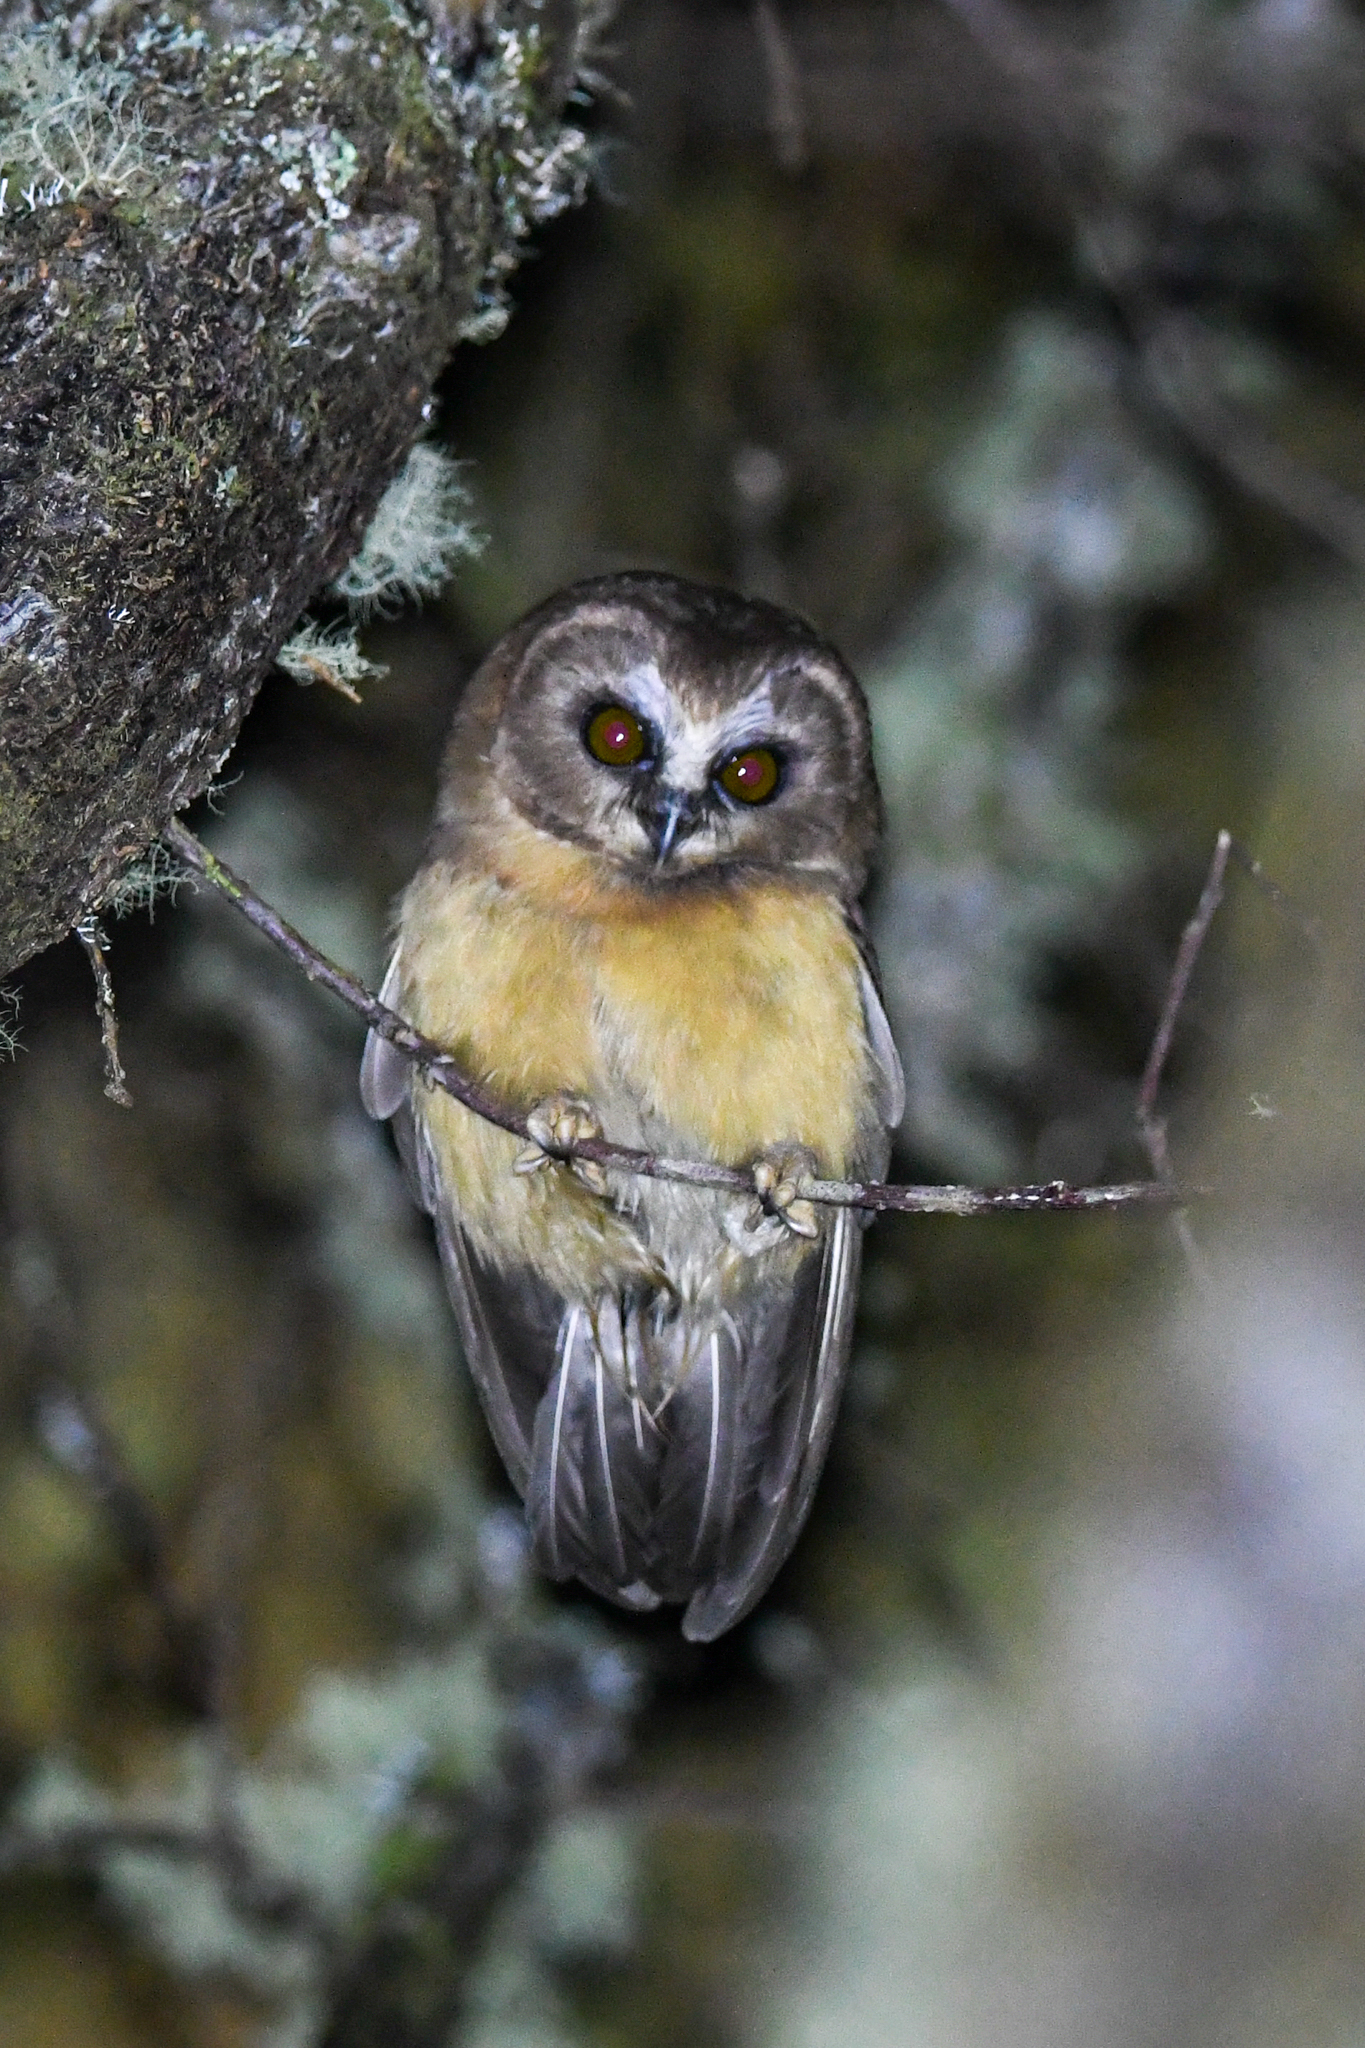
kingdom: Animalia
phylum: Chordata
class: Aves
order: Strigiformes
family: Strigidae
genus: Aegolius
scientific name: Aegolius ridgwayi
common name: Unspotted saw-whet owl
